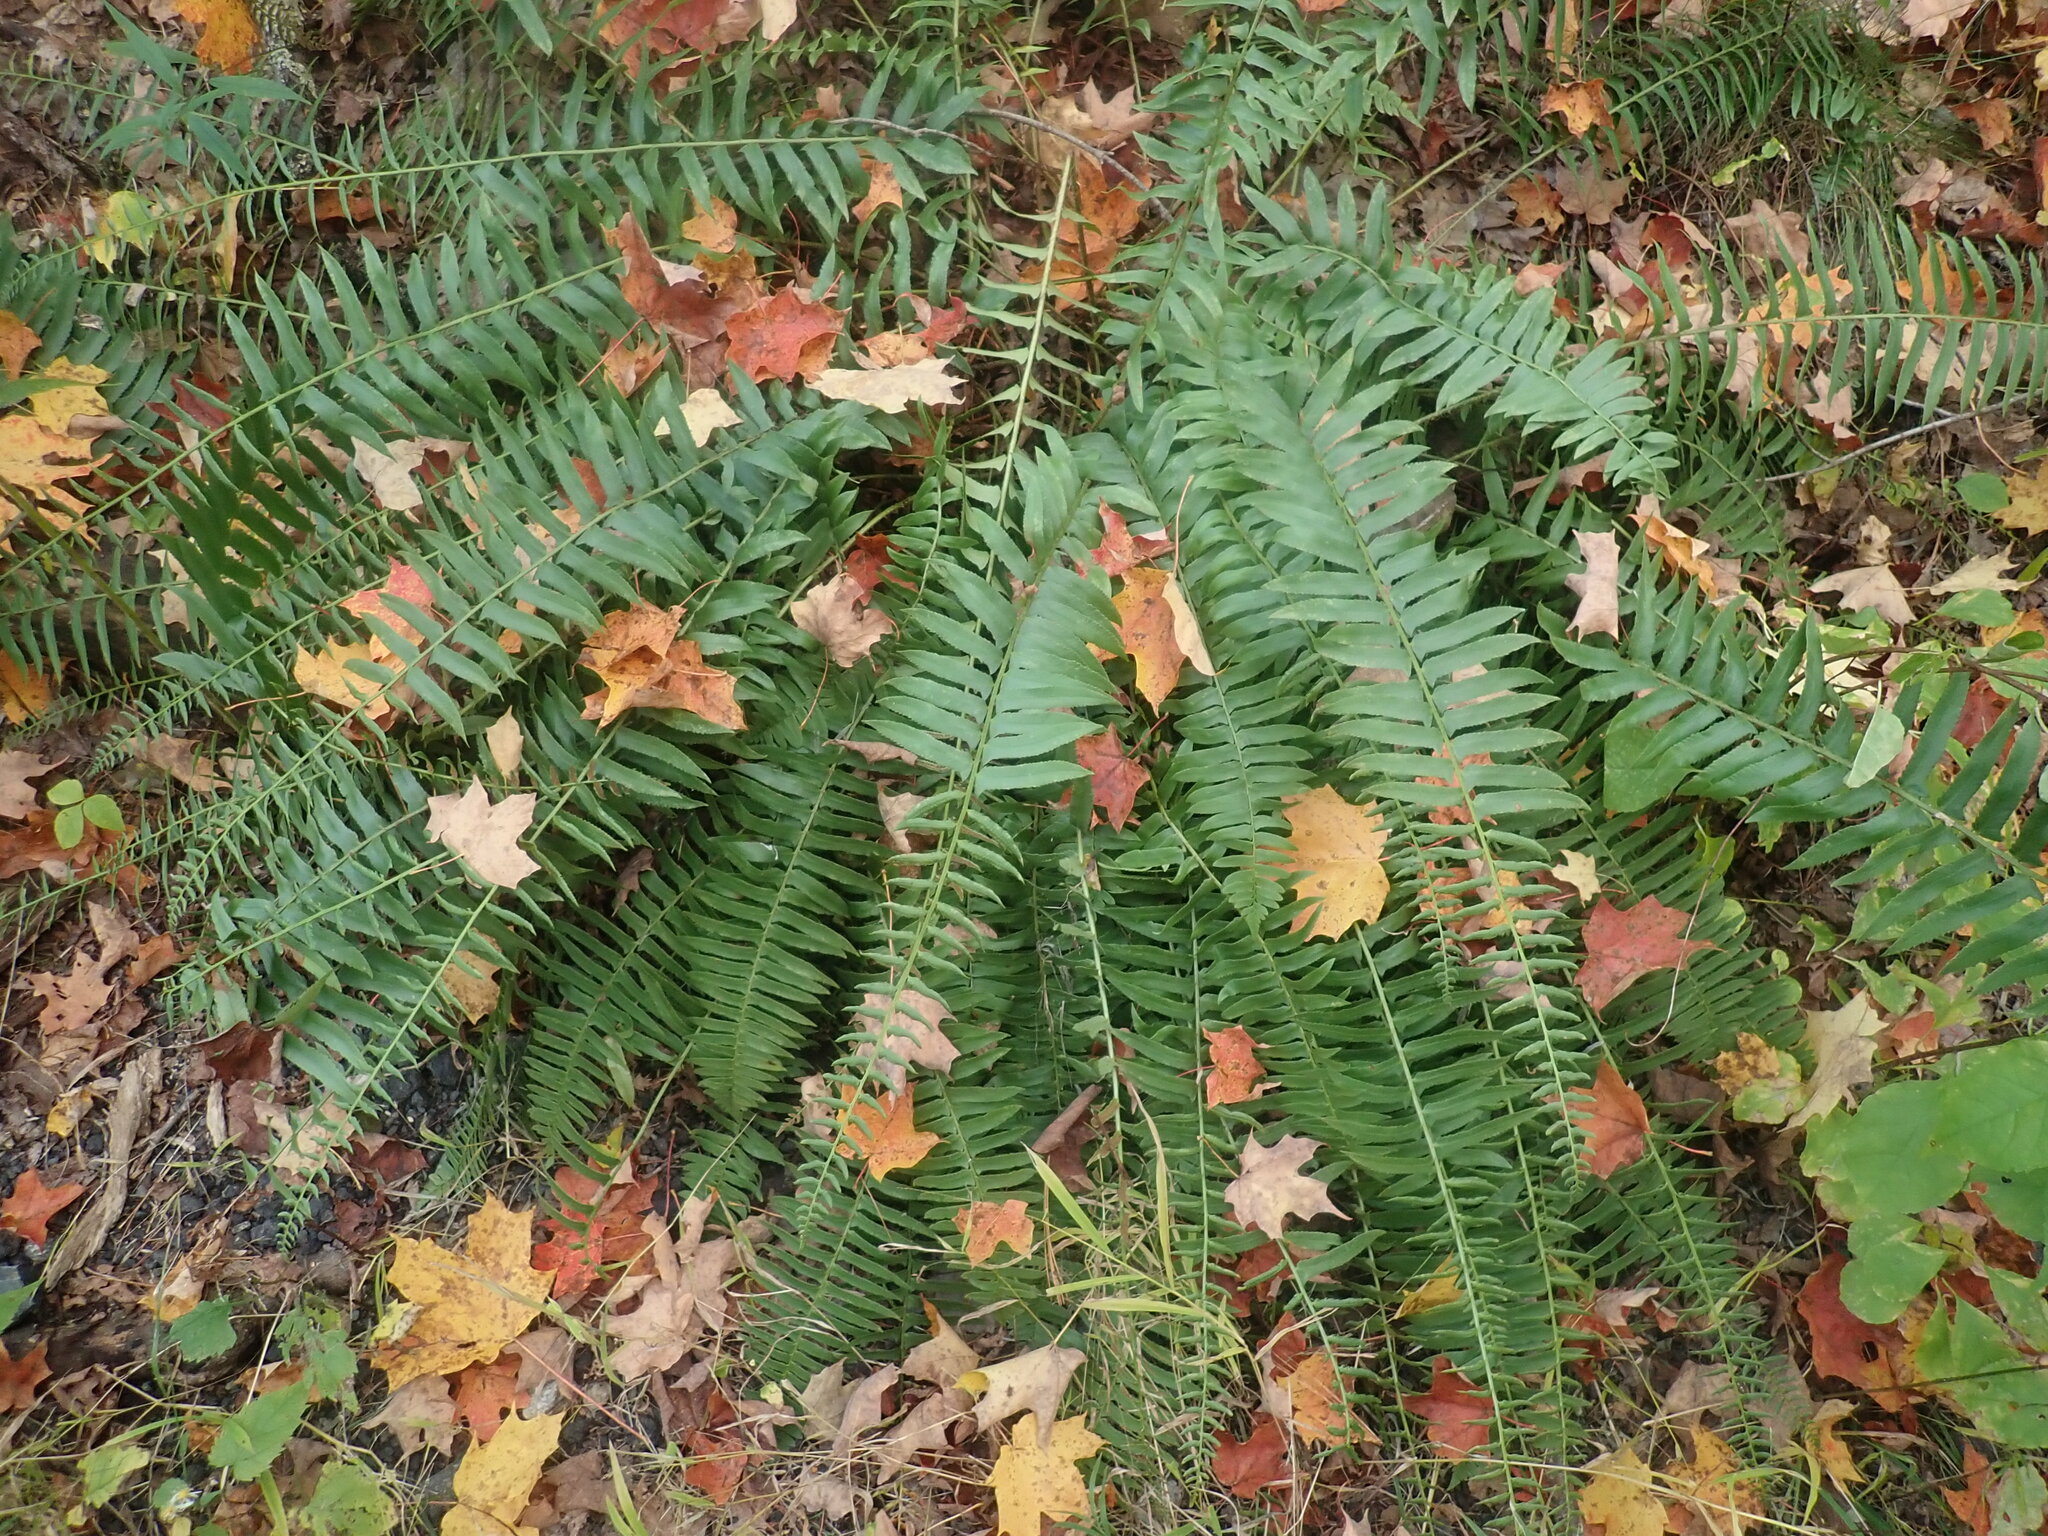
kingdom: Plantae
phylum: Tracheophyta
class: Polypodiopsida
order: Polypodiales
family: Dryopteridaceae
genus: Polystichum
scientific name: Polystichum acrostichoides
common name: Christmas fern
